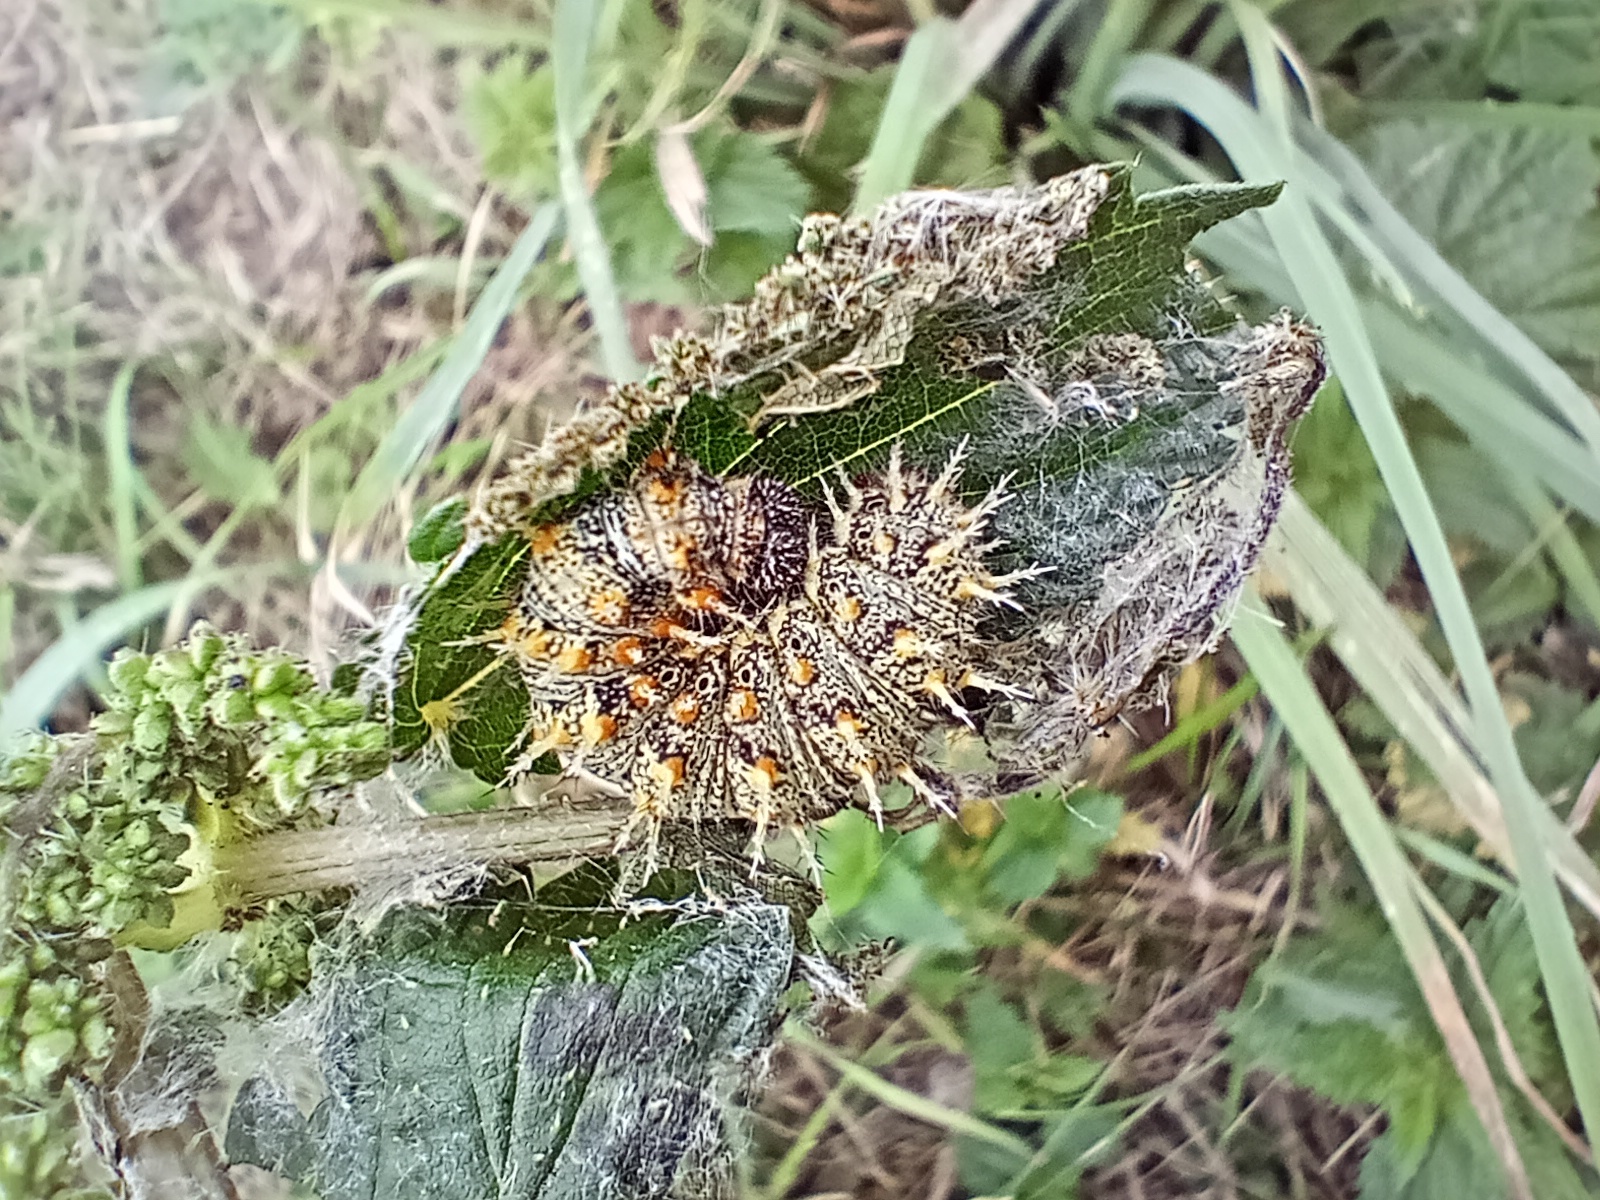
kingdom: Animalia
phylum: Arthropoda
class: Insecta
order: Lepidoptera
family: Nymphalidae
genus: Vanessa
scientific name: Vanessa atalanta
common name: Red admiral
